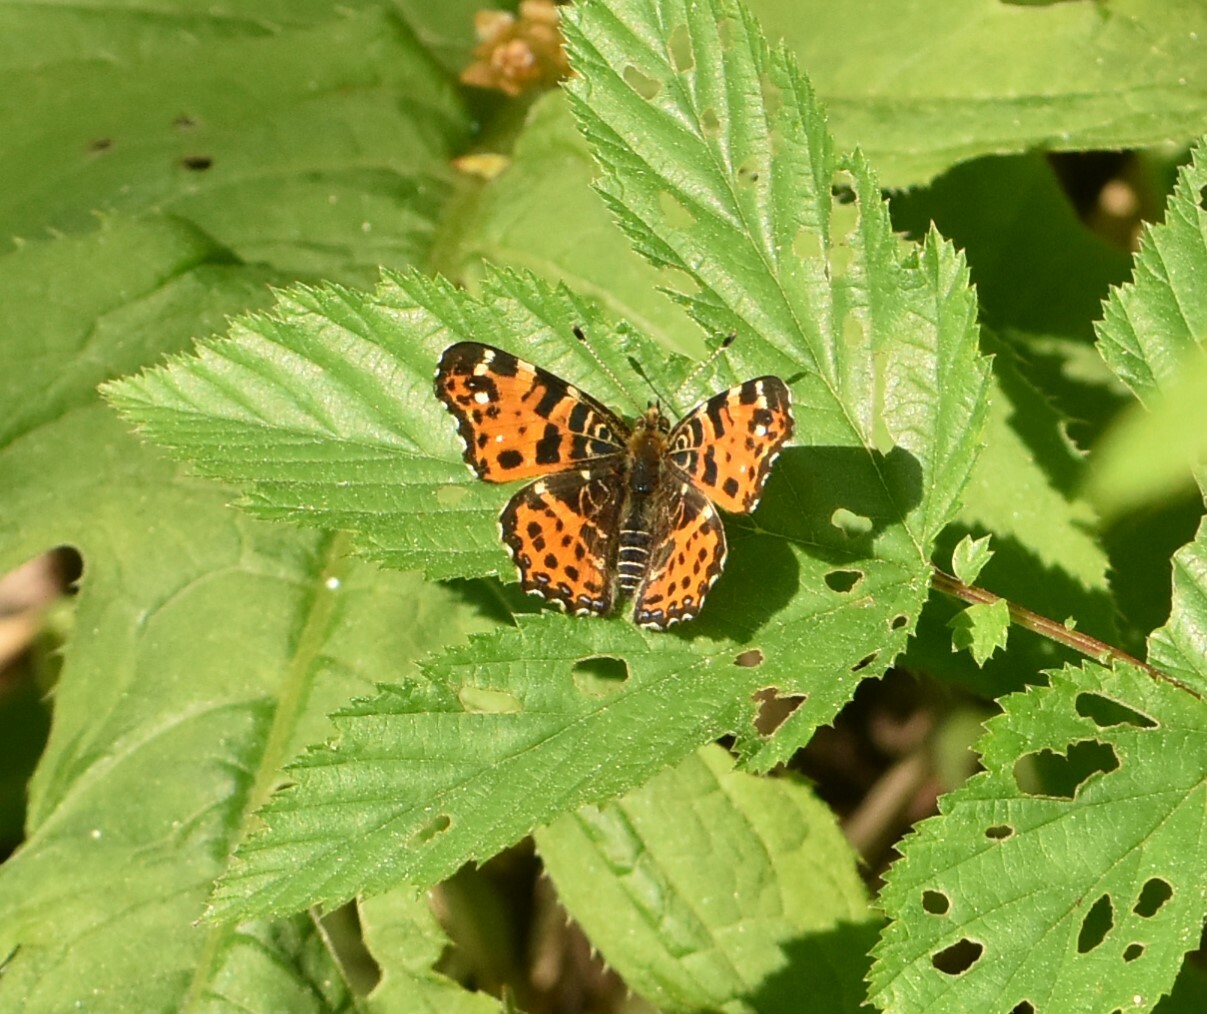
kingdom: Animalia
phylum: Arthropoda
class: Insecta
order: Lepidoptera
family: Nymphalidae
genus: Araschnia
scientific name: Araschnia levana
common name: Map butterfly
